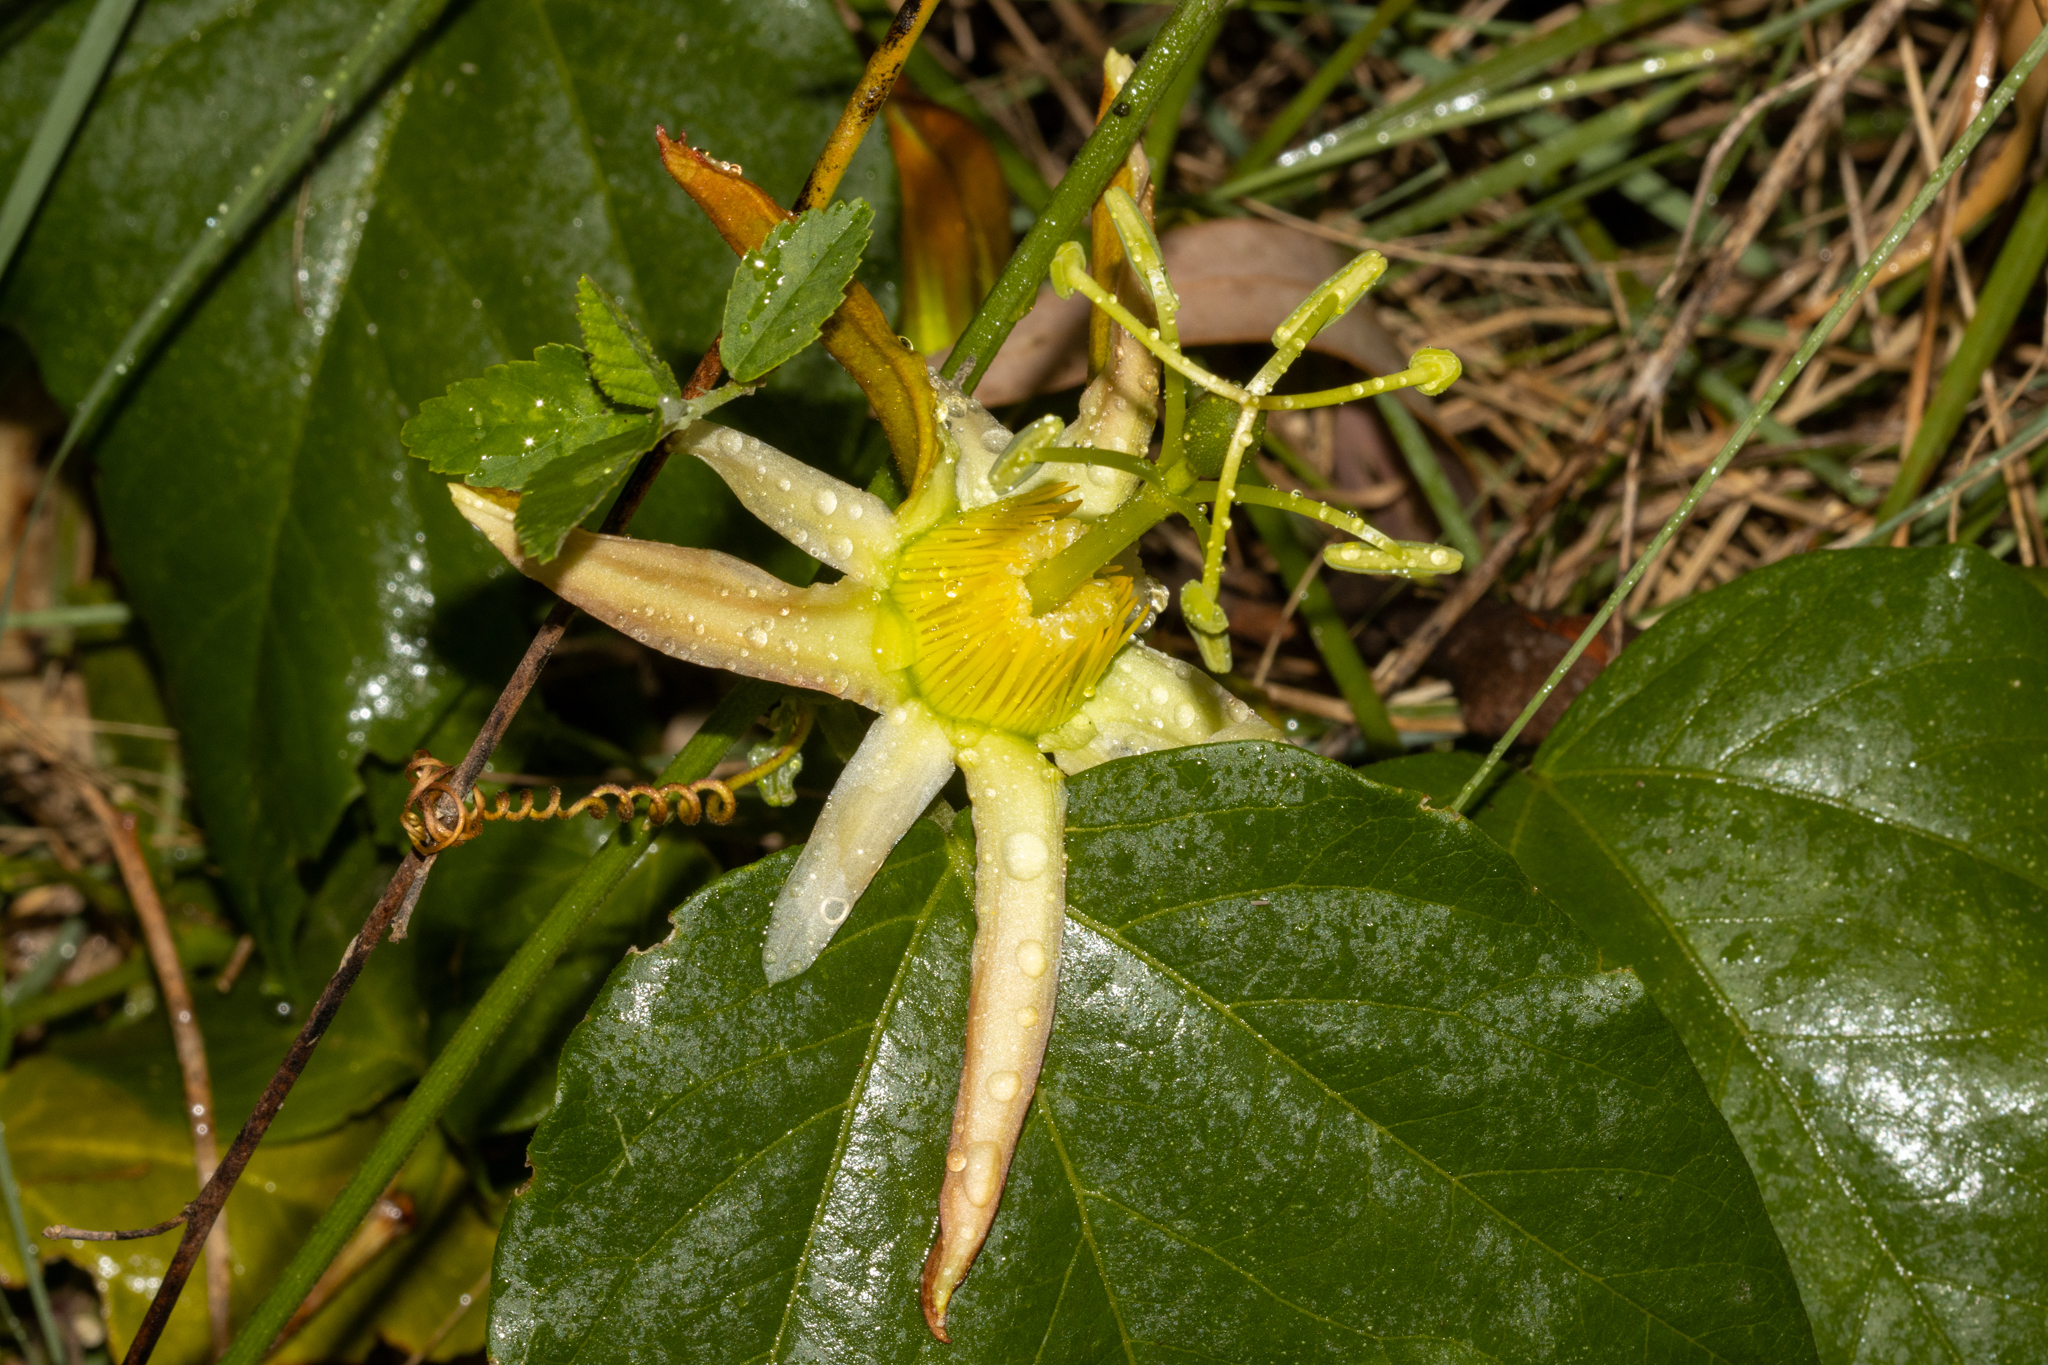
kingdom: Plantae
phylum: Tracheophyta
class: Magnoliopsida
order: Malpighiales
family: Passifloraceae
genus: Passiflora
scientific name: Passiflora herbertiana
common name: Yellow passionflower
